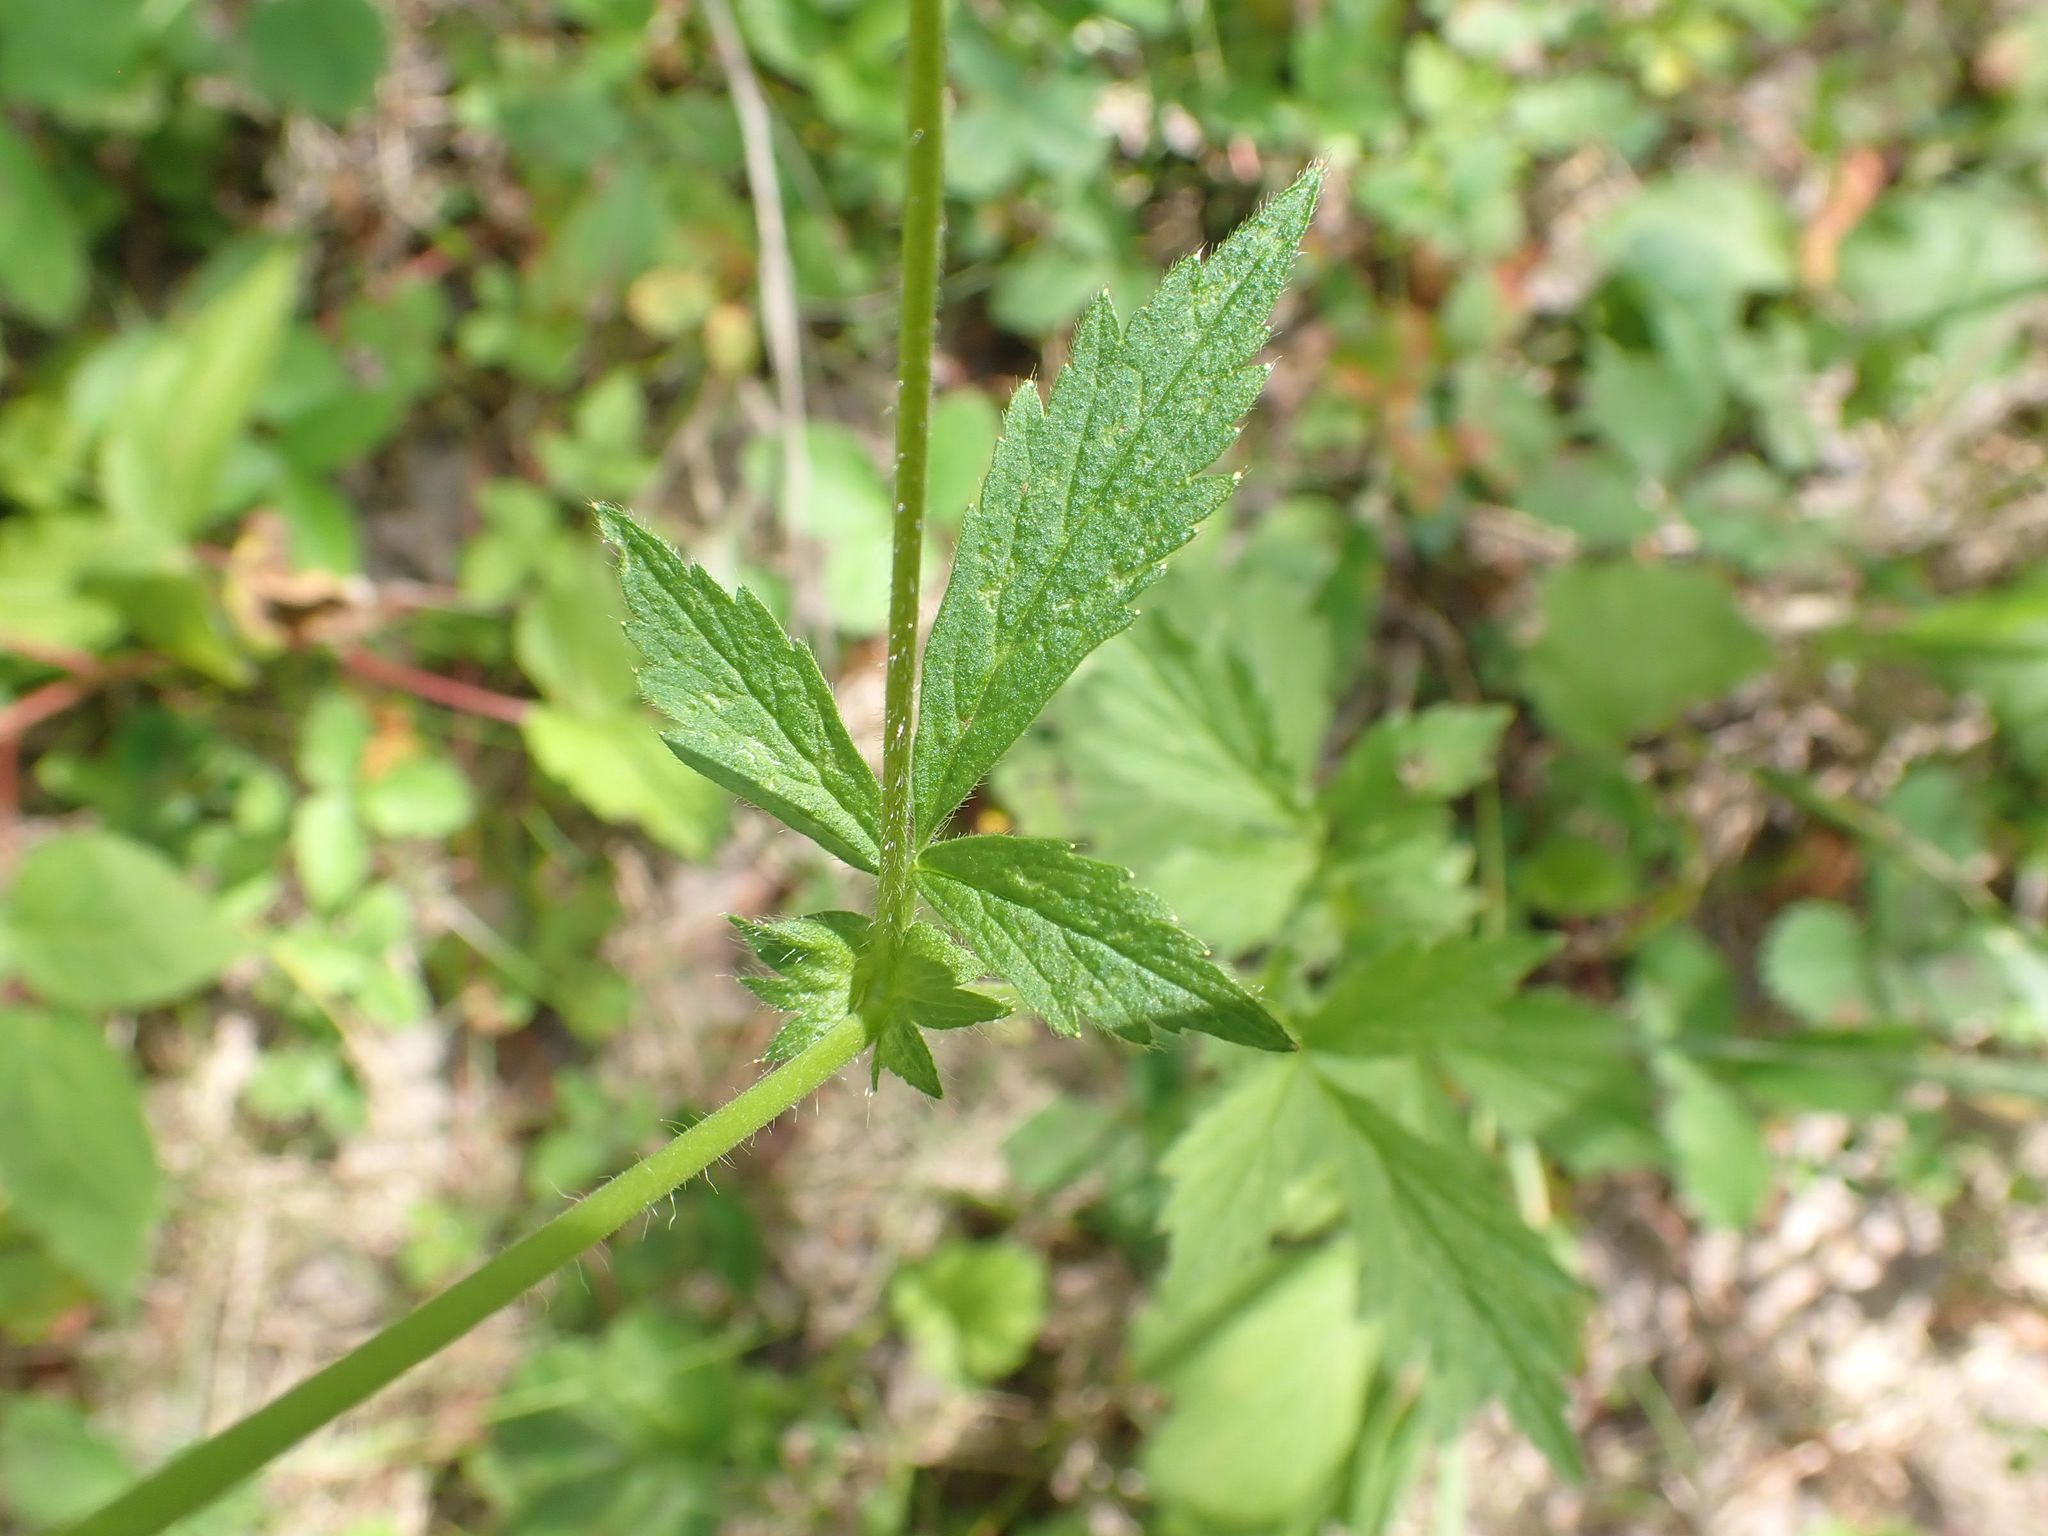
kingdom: Plantae
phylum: Tracheophyta
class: Magnoliopsida
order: Rosales
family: Rosaceae
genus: Geum
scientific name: Geum aleppicum
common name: Yellow avens
